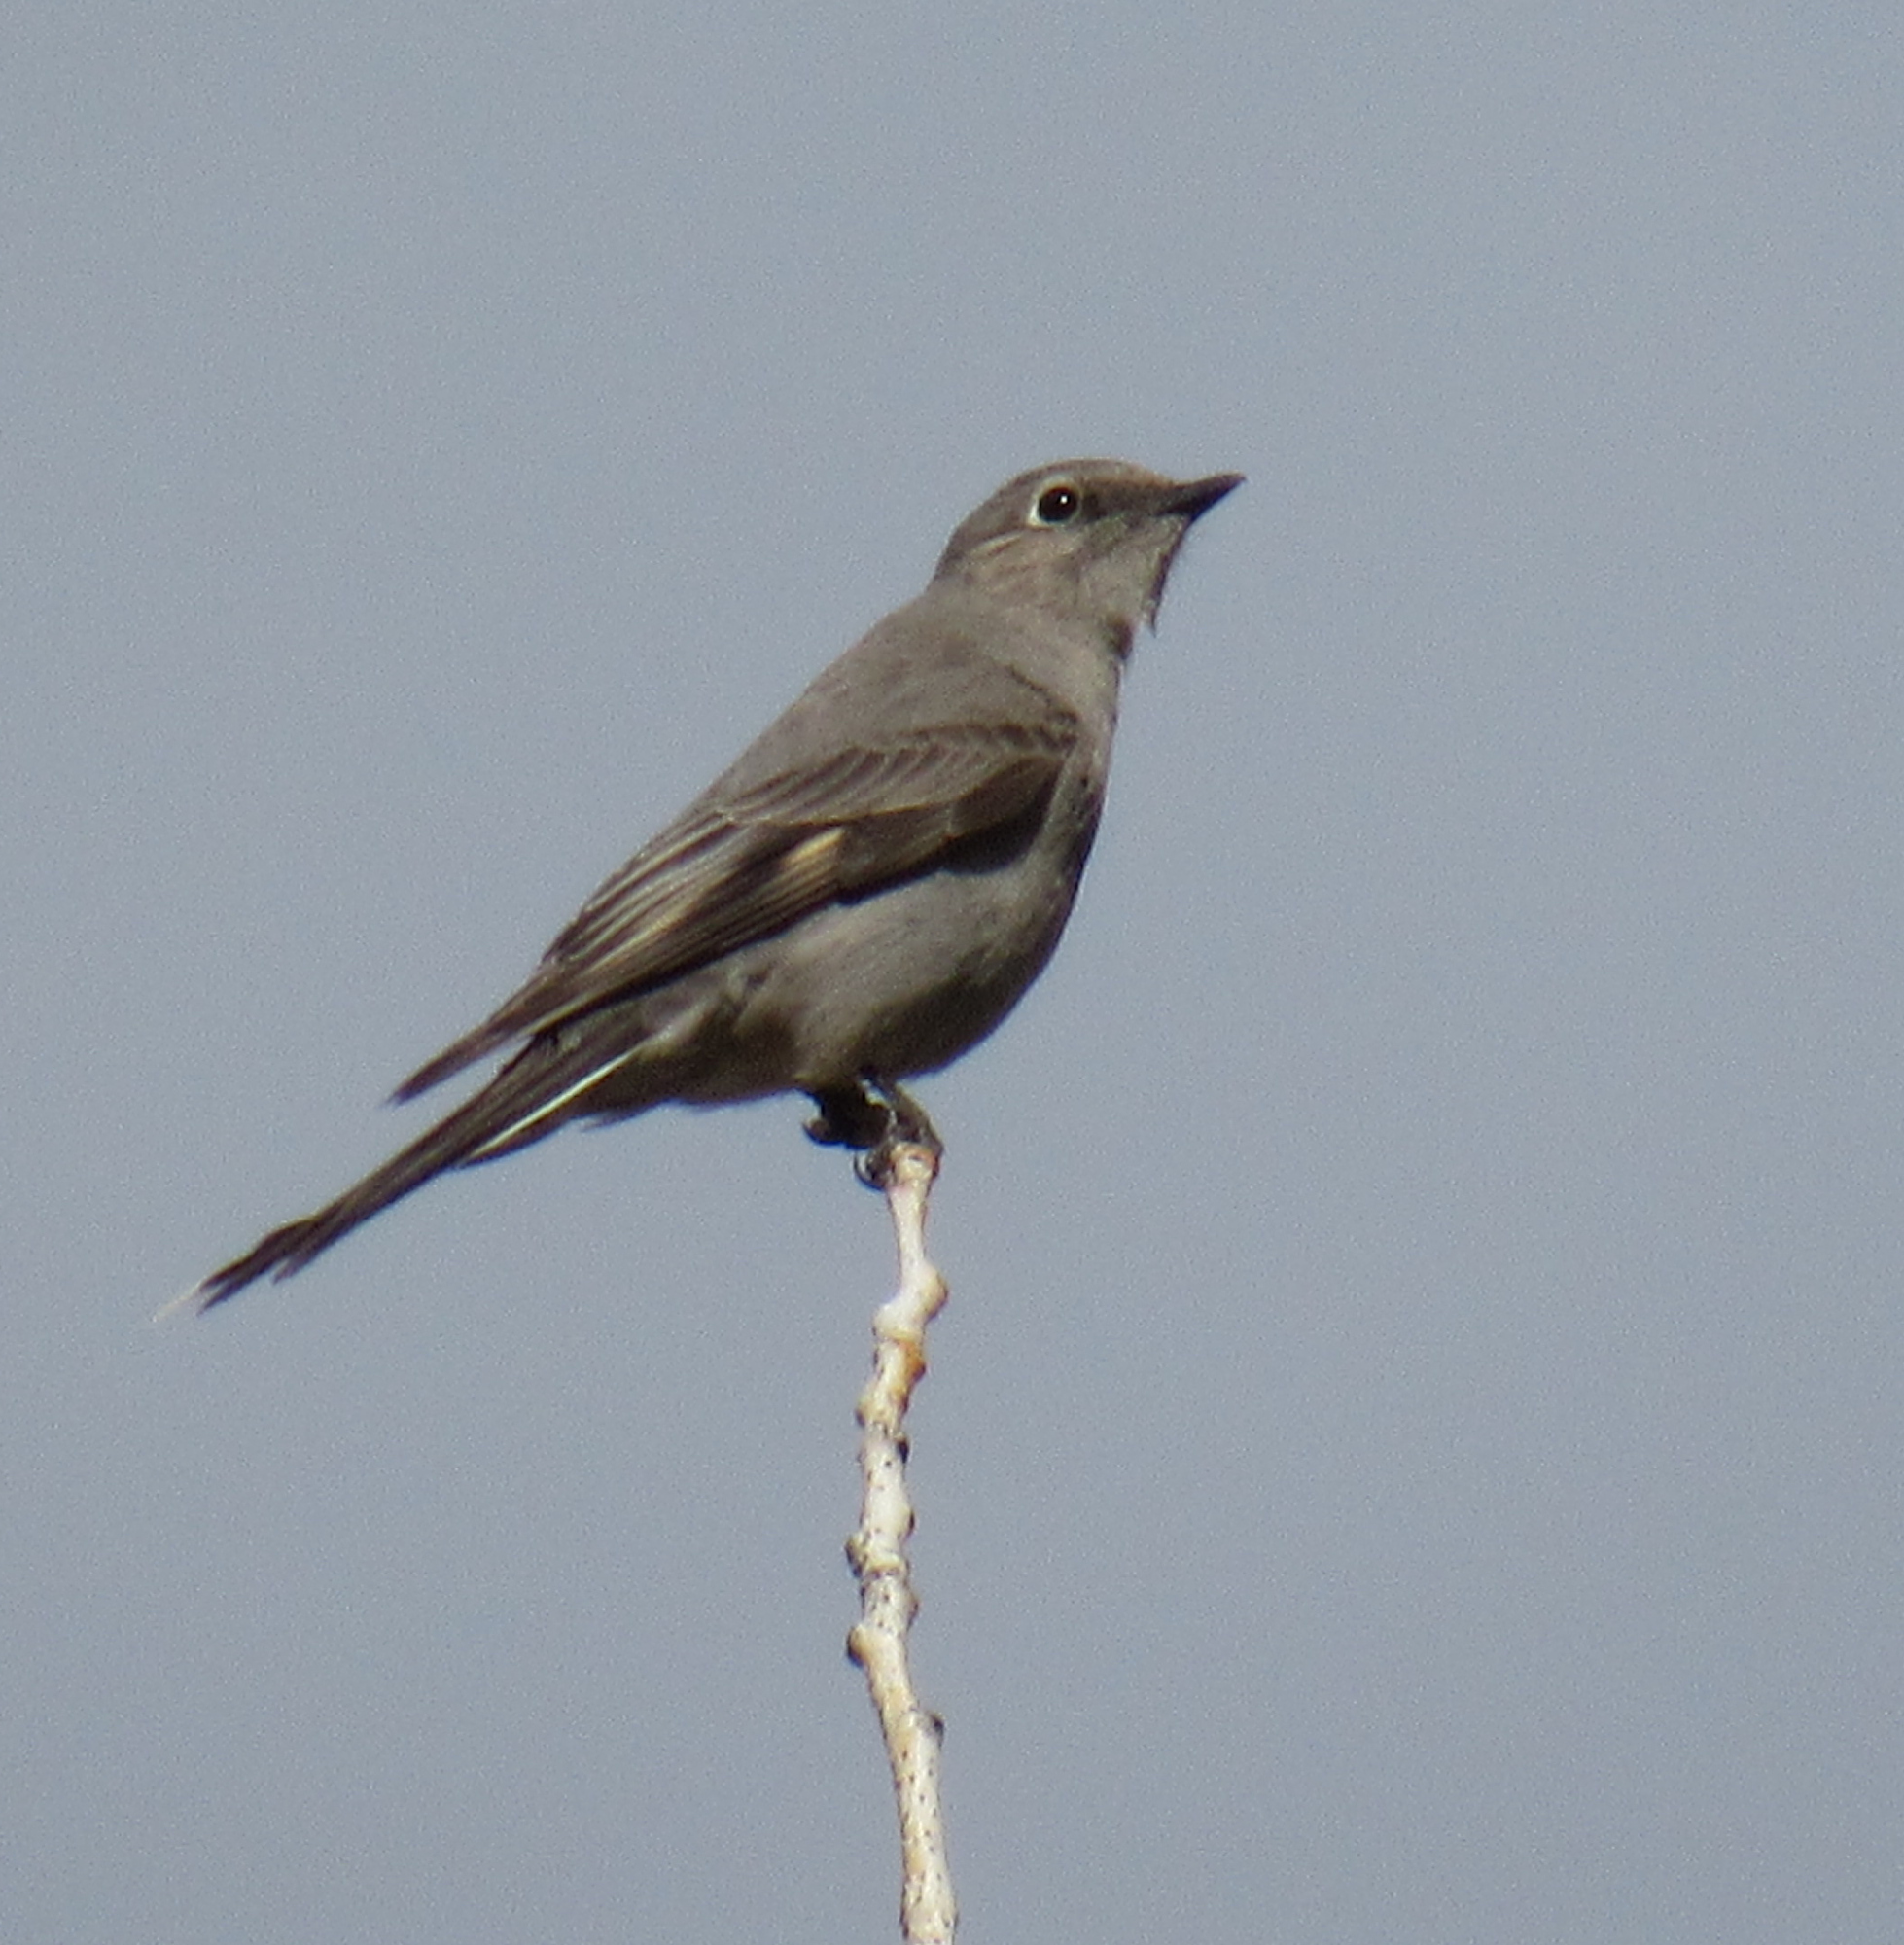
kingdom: Animalia
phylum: Chordata
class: Aves
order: Passeriformes
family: Turdidae
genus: Myadestes
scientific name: Myadestes townsendi
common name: Townsend's solitaire
